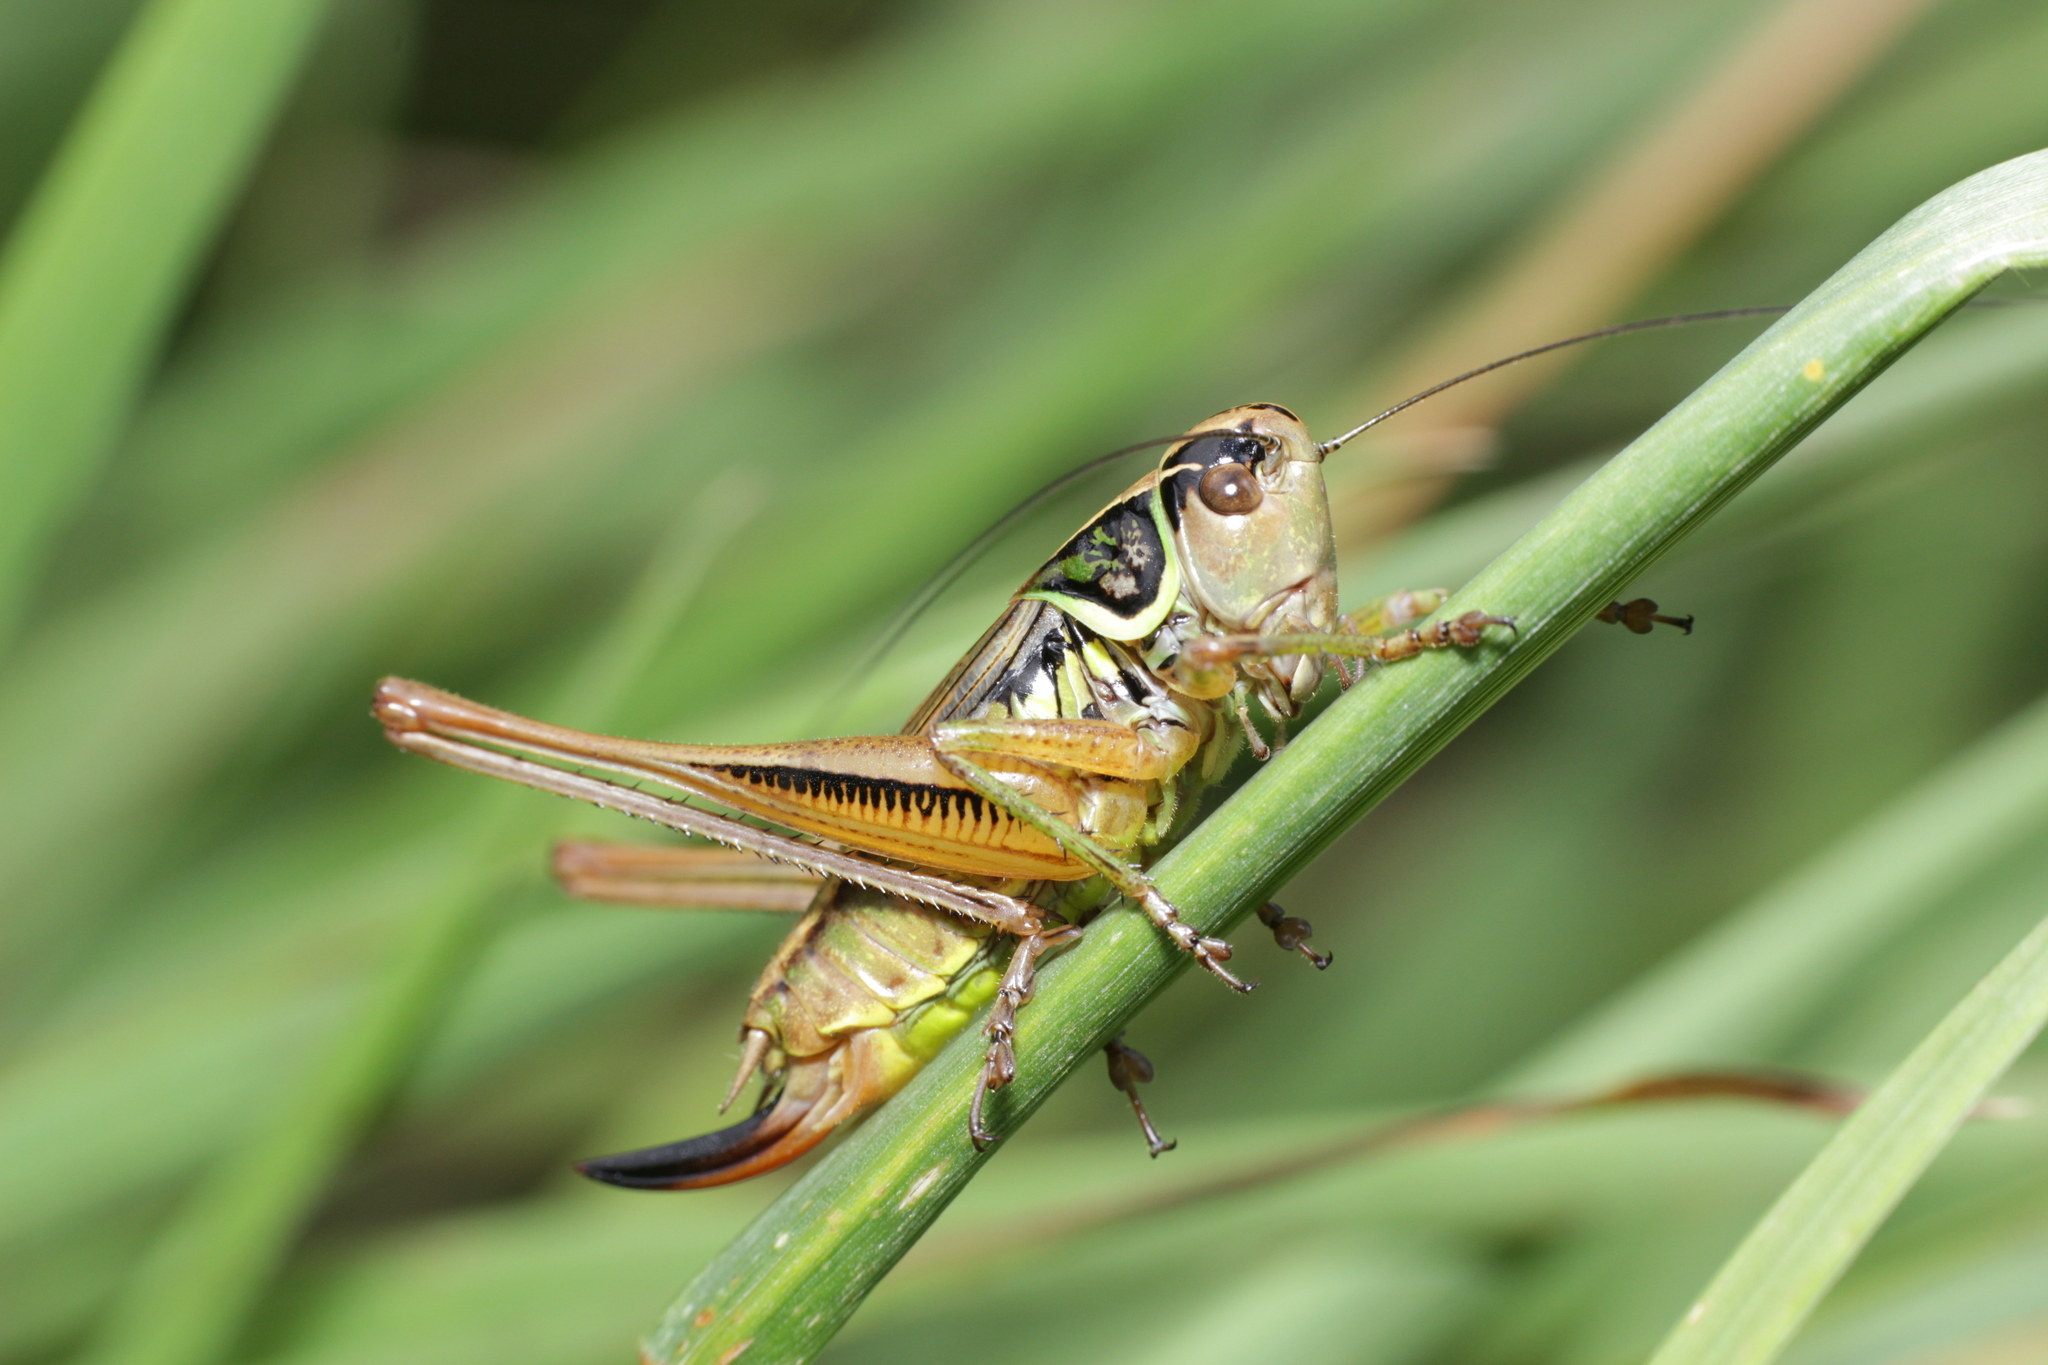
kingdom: Animalia
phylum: Arthropoda
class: Insecta
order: Orthoptera
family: Tettigoniidae
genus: Roeseliana
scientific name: Roeseliana roeselii
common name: Roesel's bush cricket
